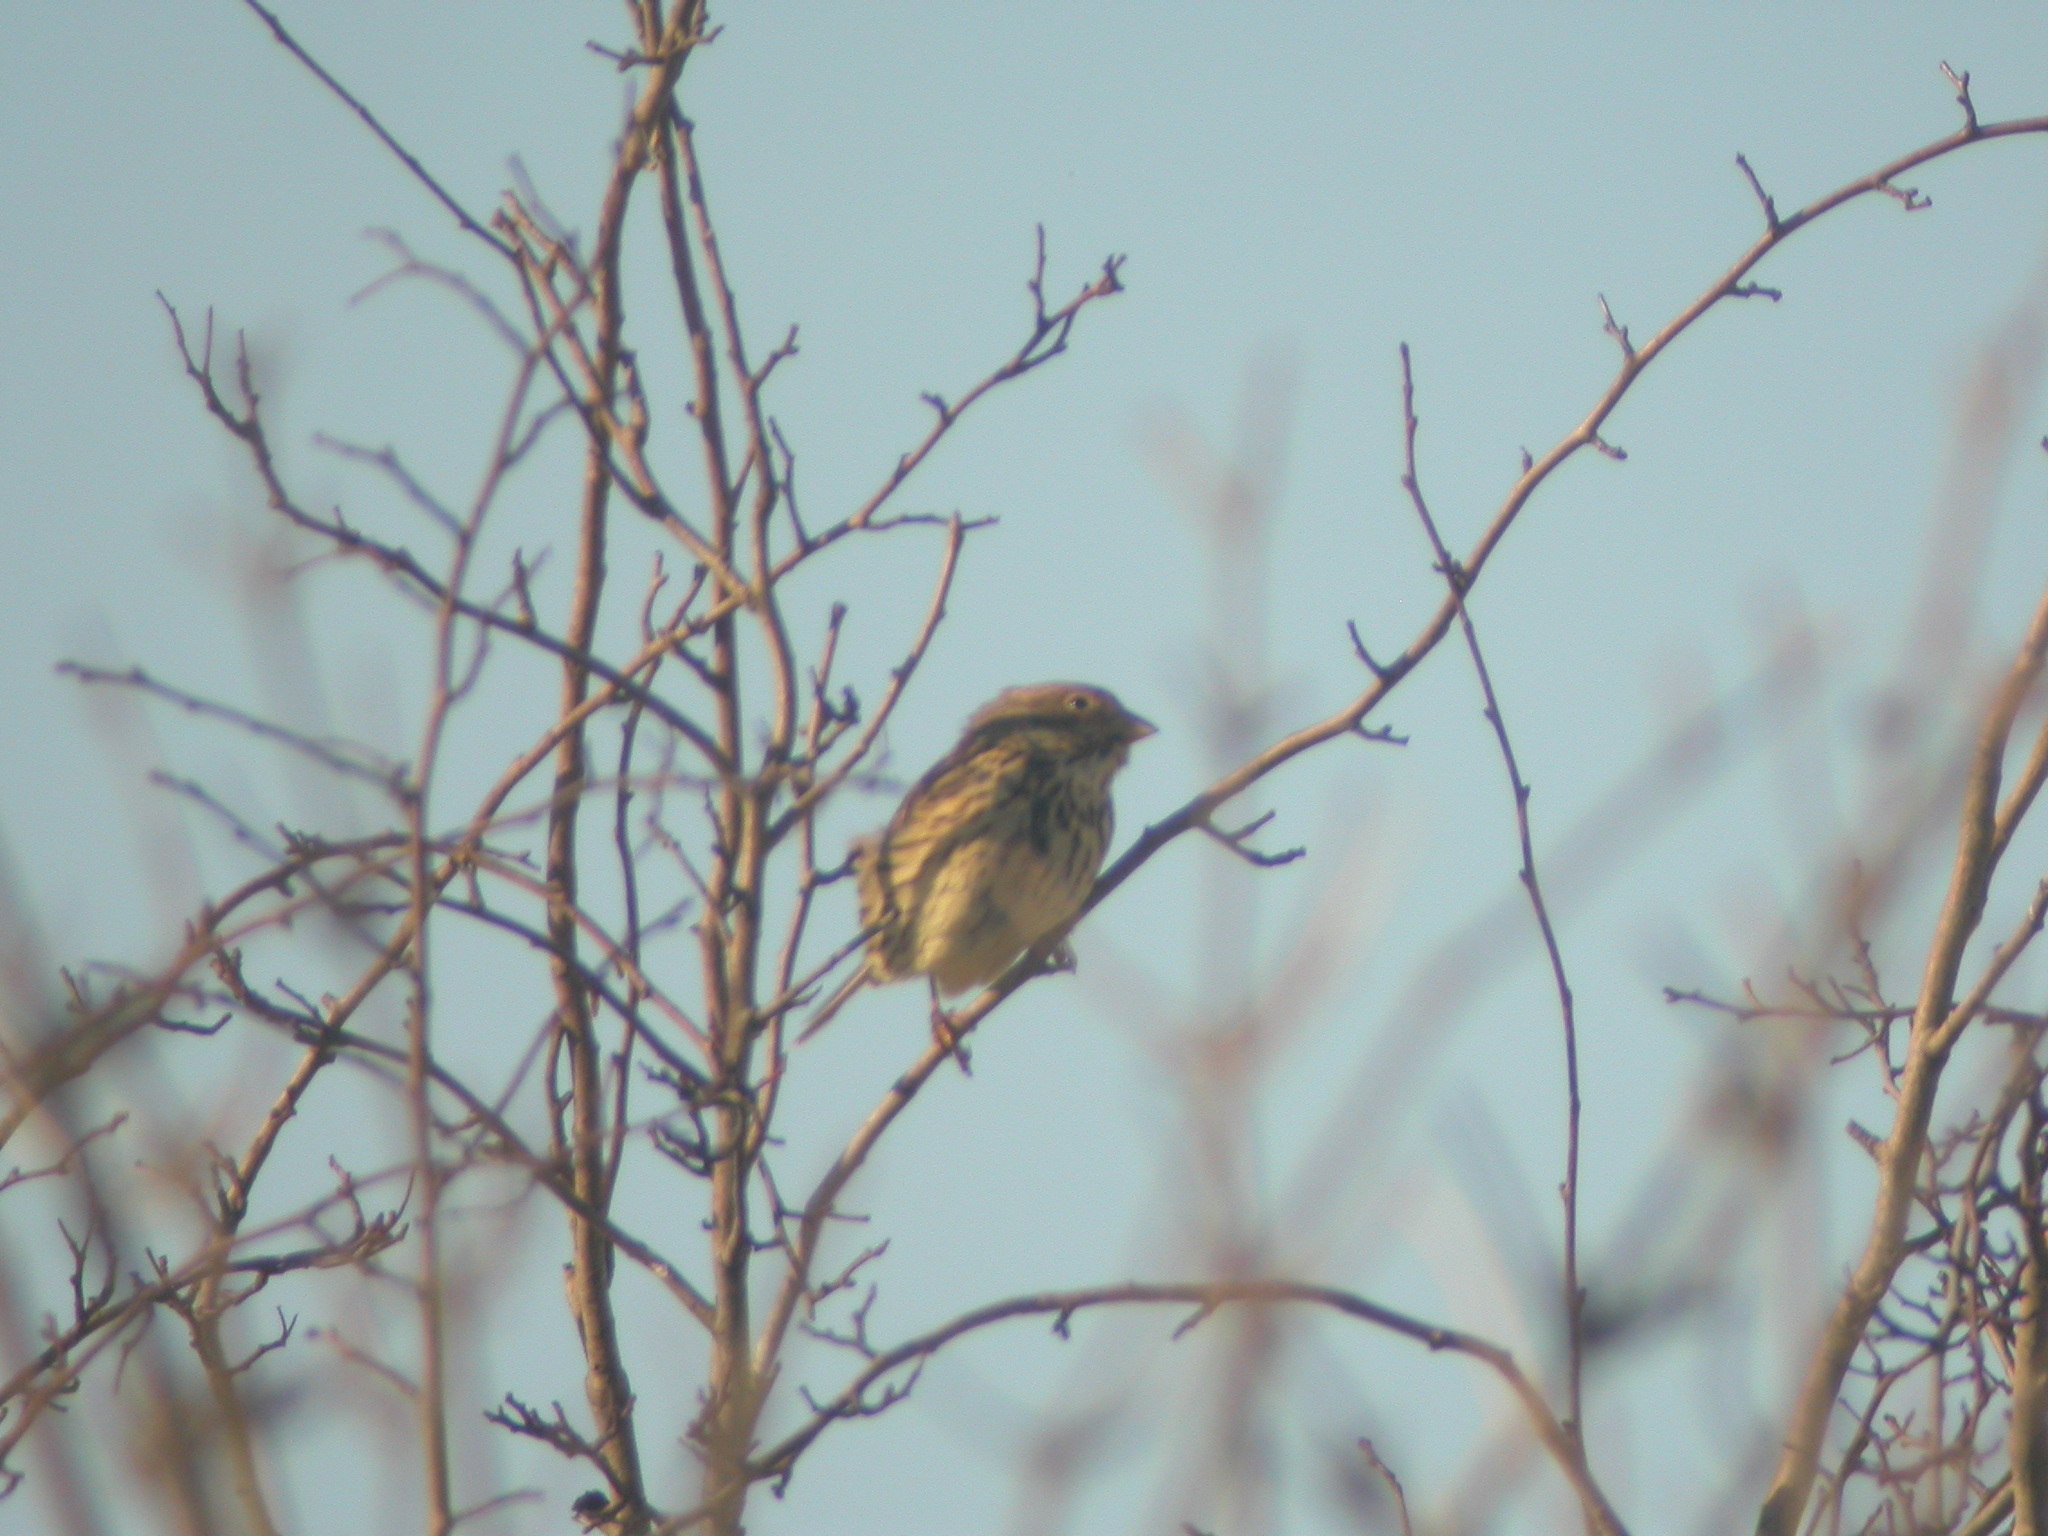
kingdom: Animalia
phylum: Chordata
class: Aves
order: Passeriformes
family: Emberizidae
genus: Emberiza
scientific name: Emberiza calandra
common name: Corn bunting
